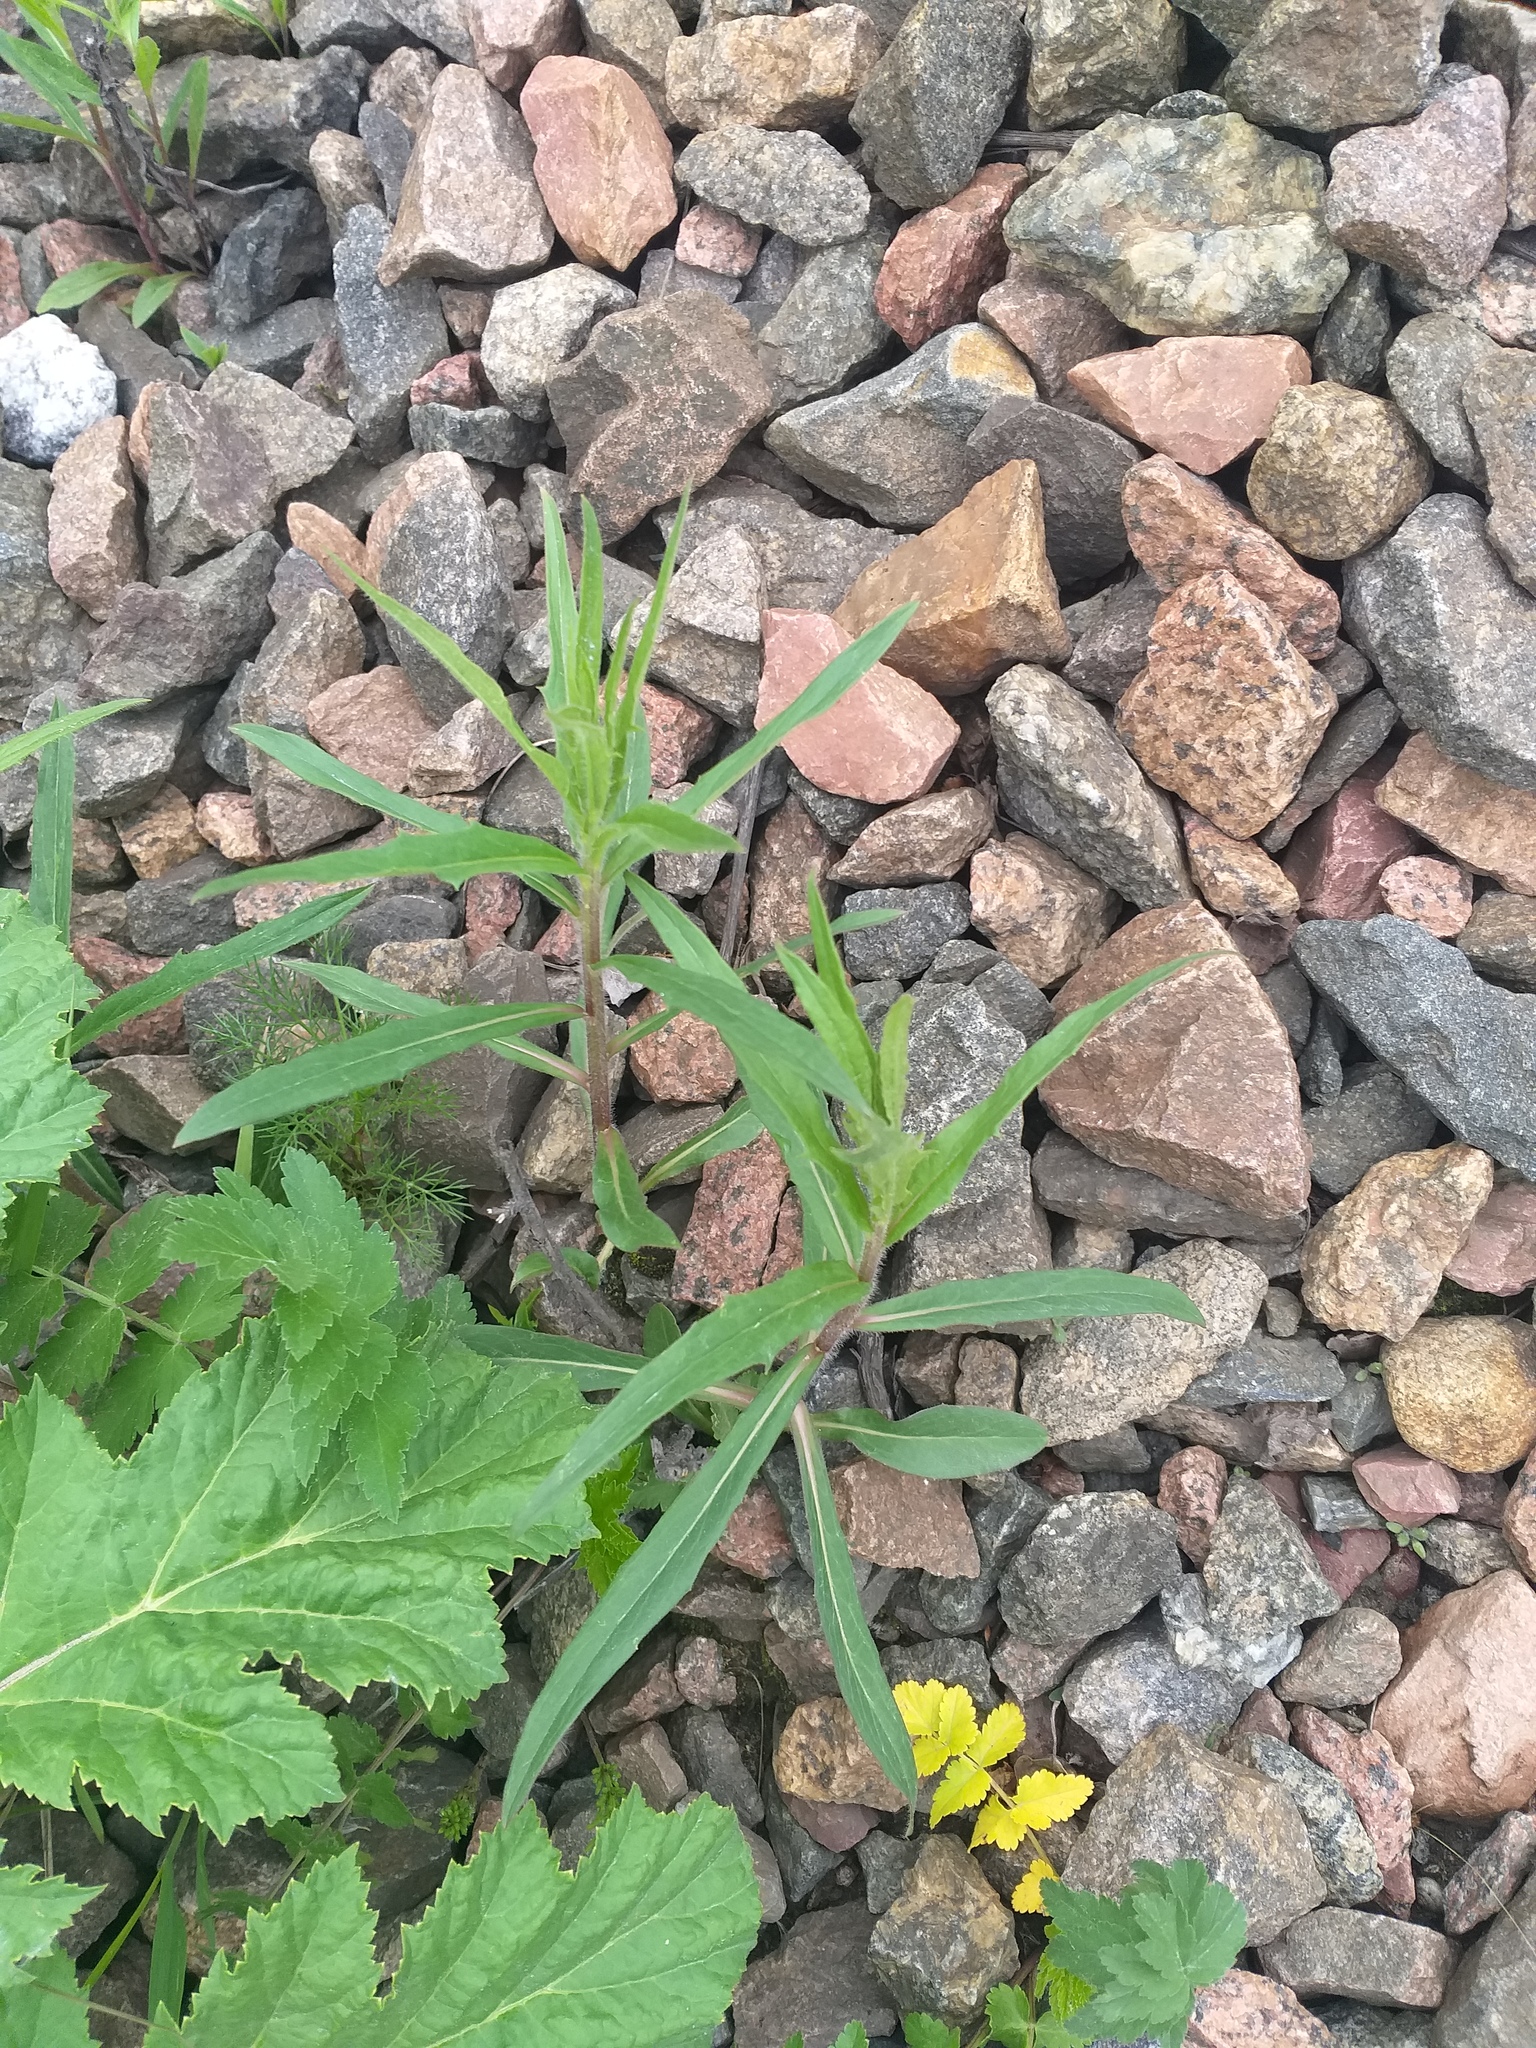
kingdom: Plantae
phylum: Tracheophyta
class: Magnoliopsida
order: Asterales
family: Asteraceae
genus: Hieracium
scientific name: Hieracium umbellatum
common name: Northern hawkweed
